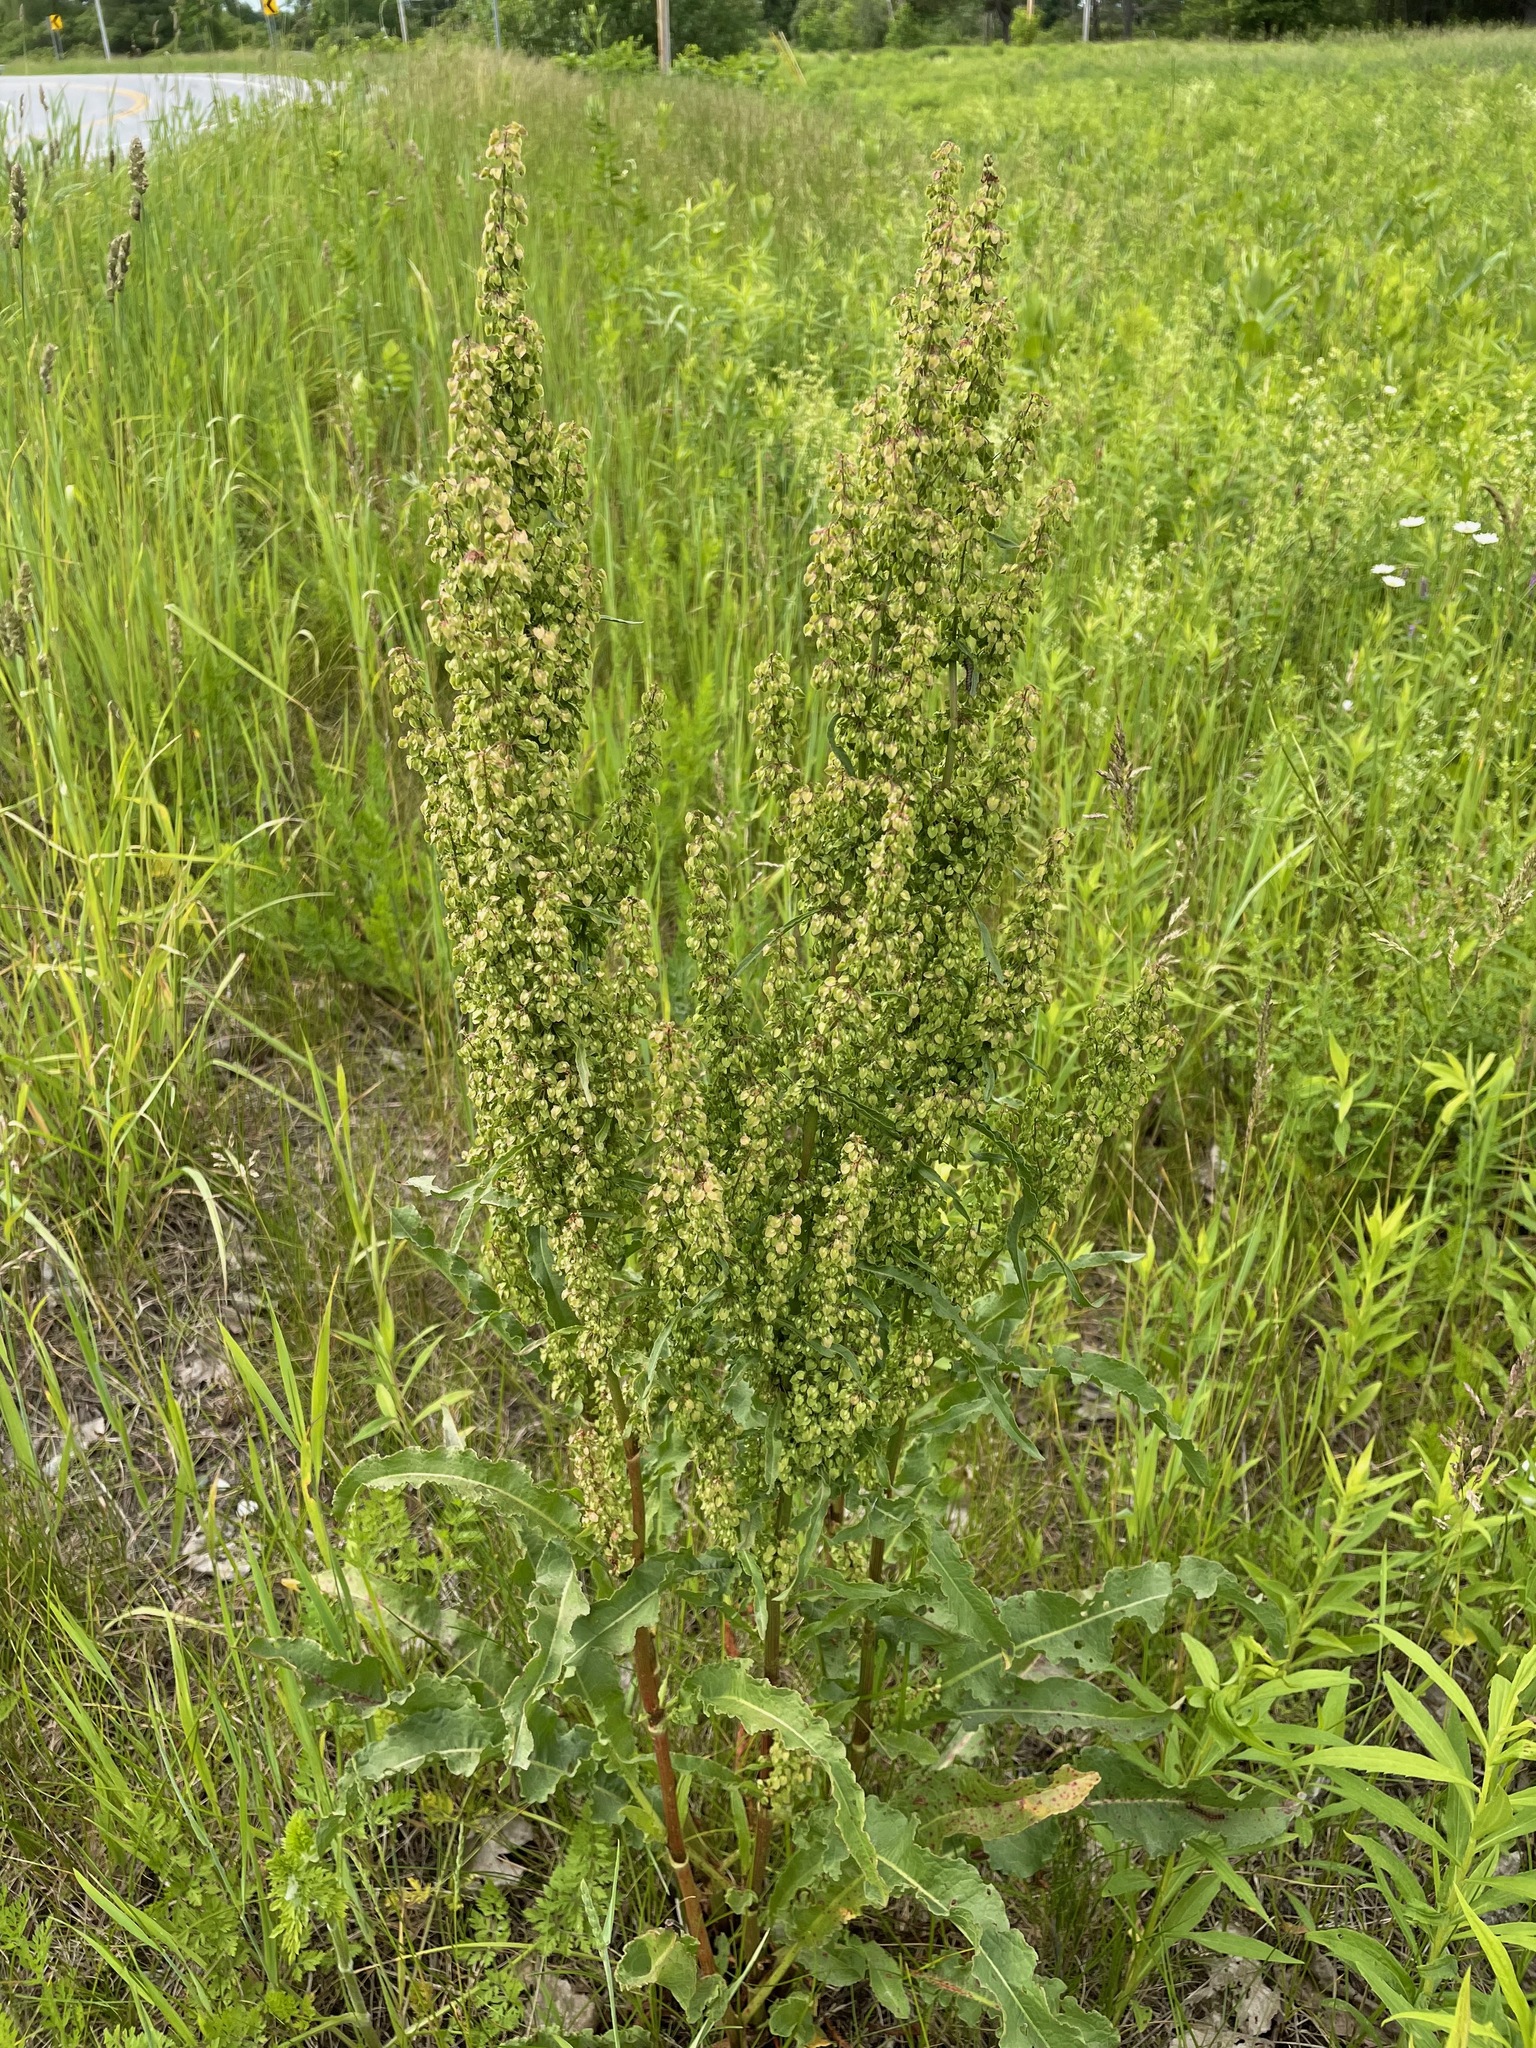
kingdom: Plantae
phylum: Tracheophyta
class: Magnoliopsida
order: Caryophyllales
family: Polygonaceae
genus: Rumex
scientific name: Rumex crispus
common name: Curled dock
